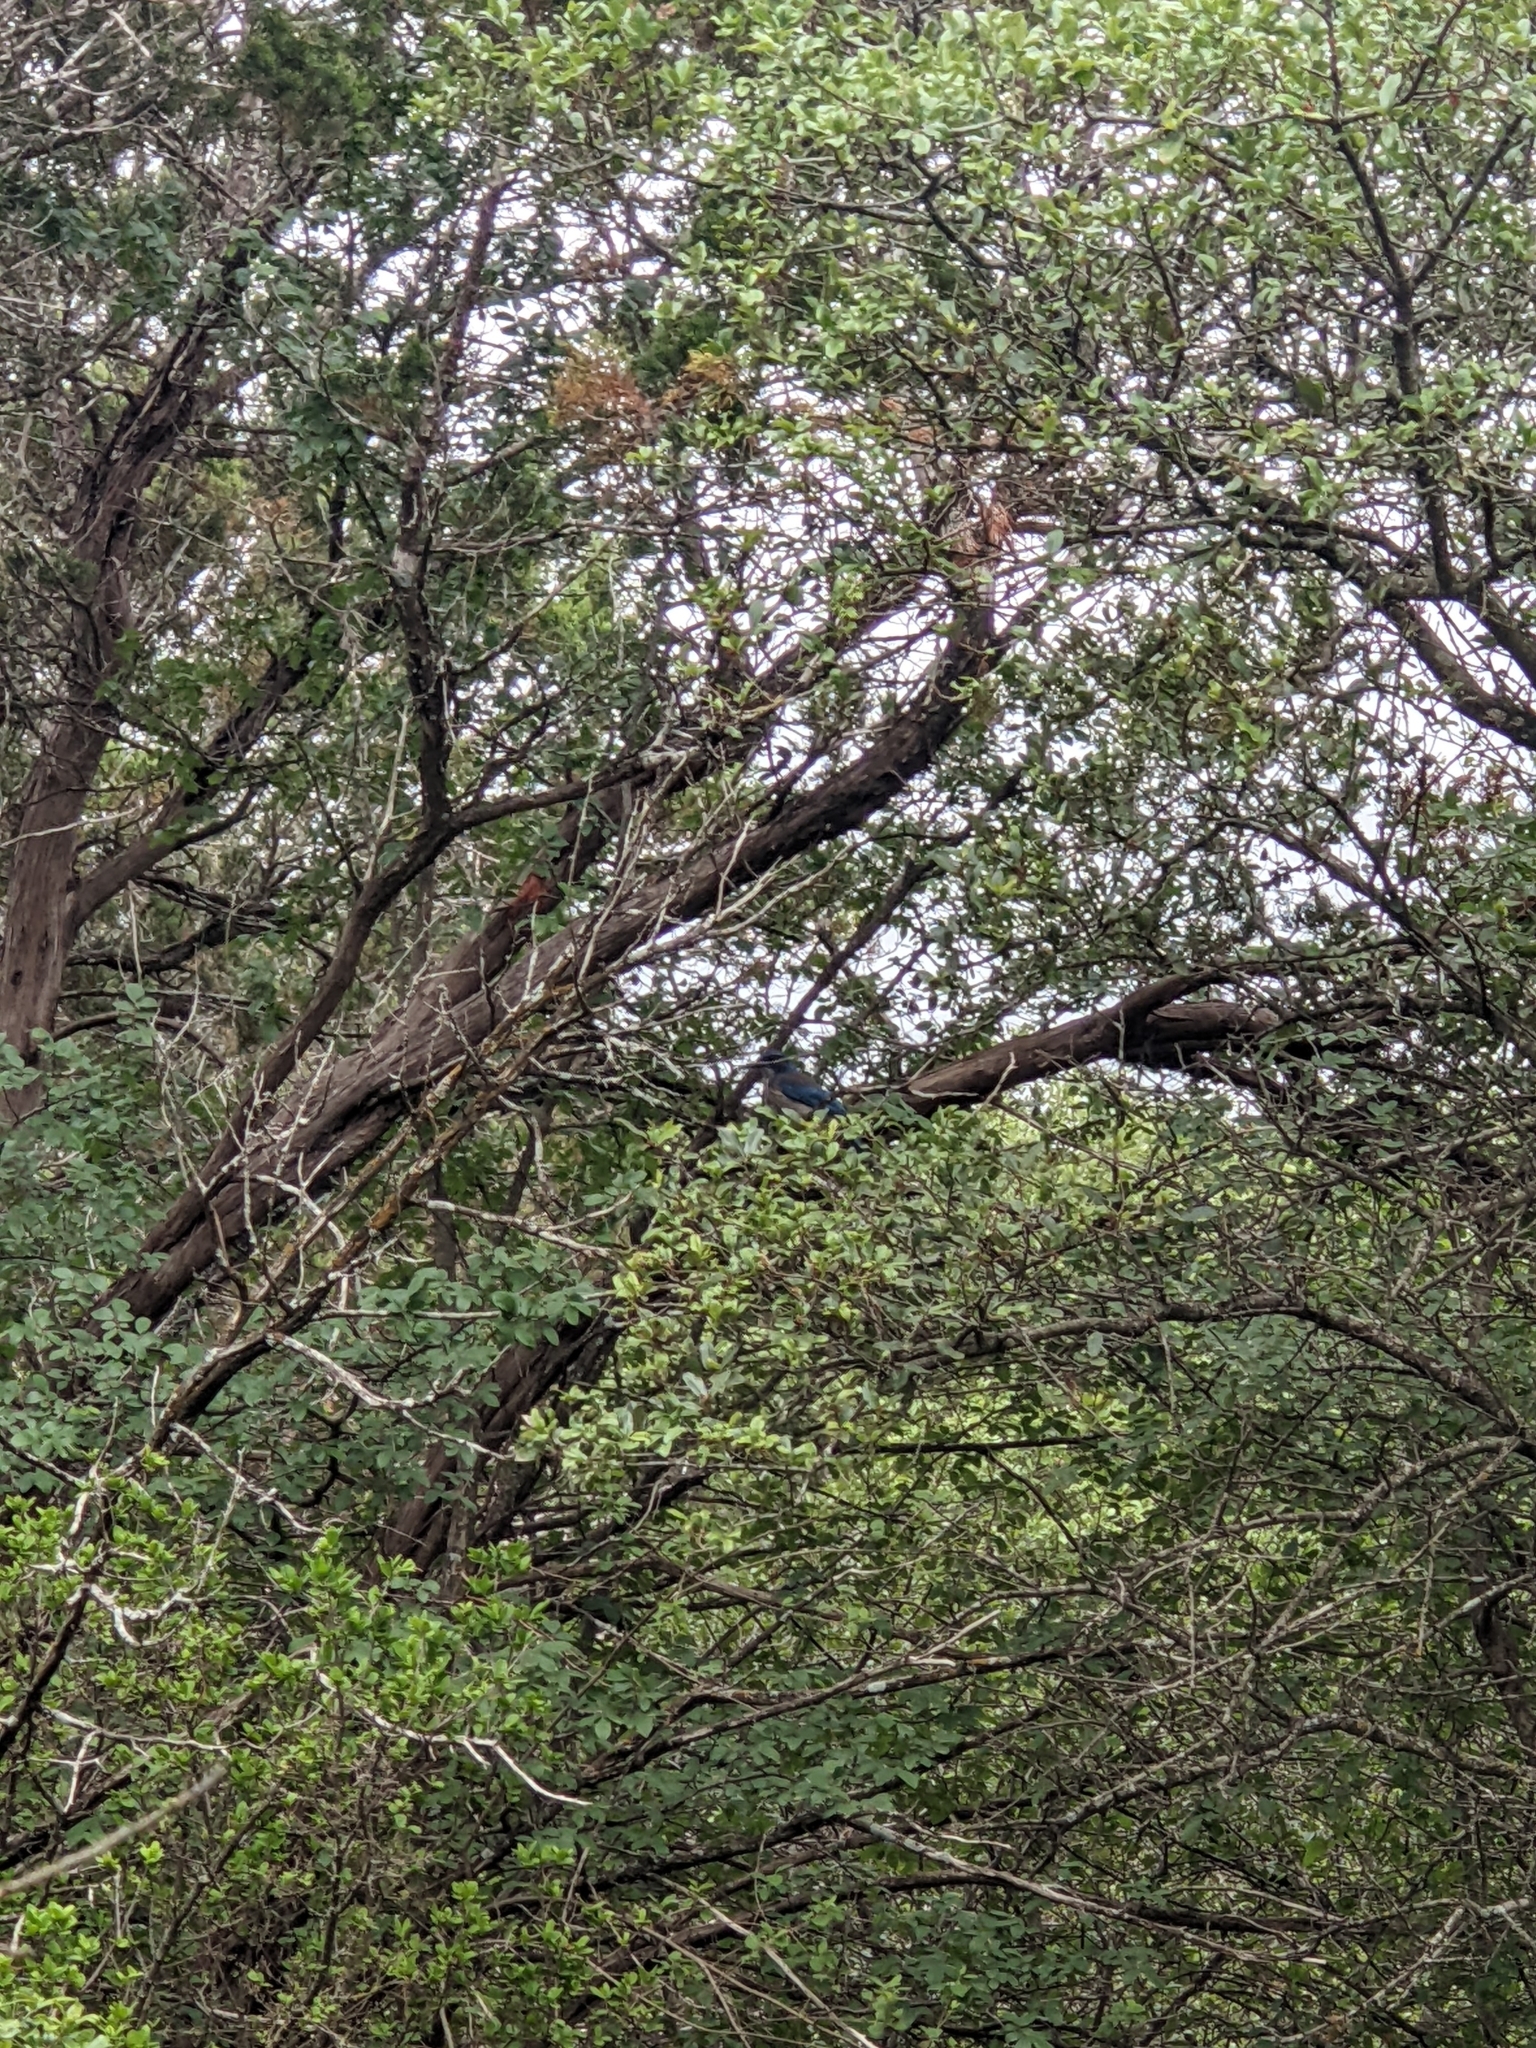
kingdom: Animalia
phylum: Chordata
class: Aves
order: Passeriformes
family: Corvidae
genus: Aphelocoma
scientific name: Aphelocoma woodhouseii
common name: Woodhouse's scrub-jay
